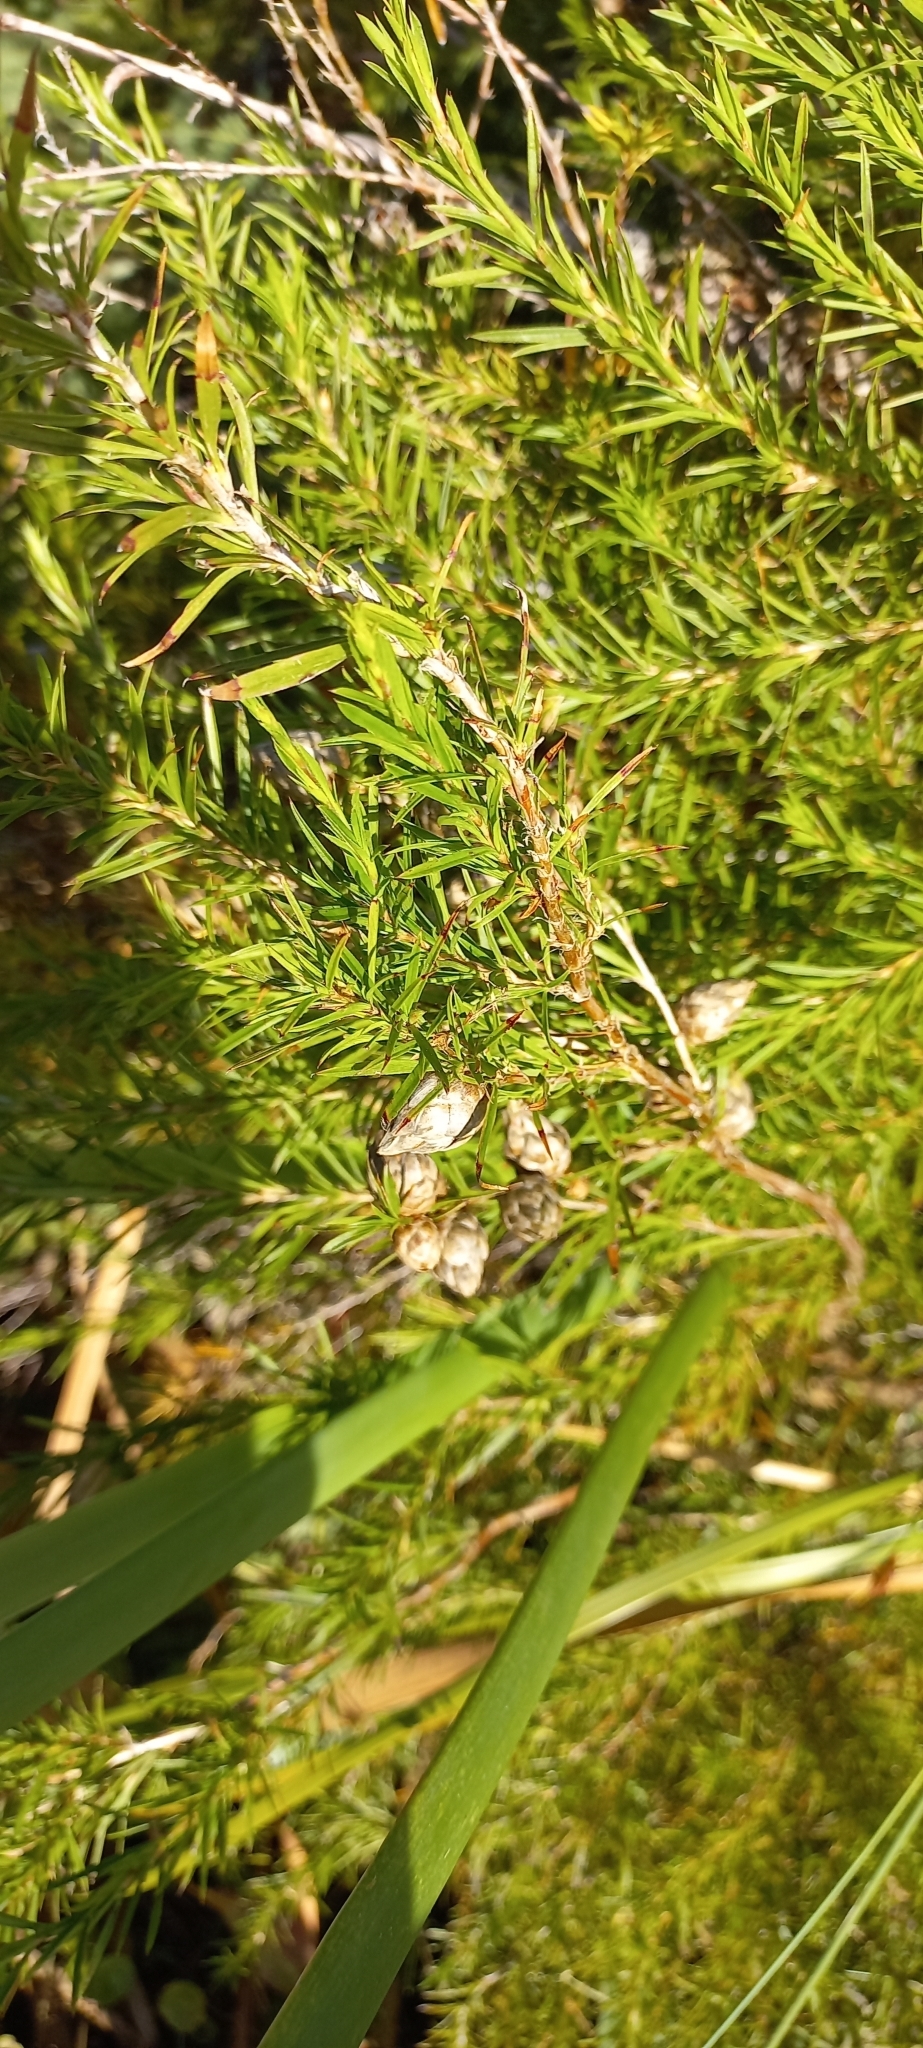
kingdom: Plantae
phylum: Tracheophyta
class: Magnoliopsida
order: Rosales
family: Rosaceae
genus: Cliffortia
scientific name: Cliffortia strobilifera
